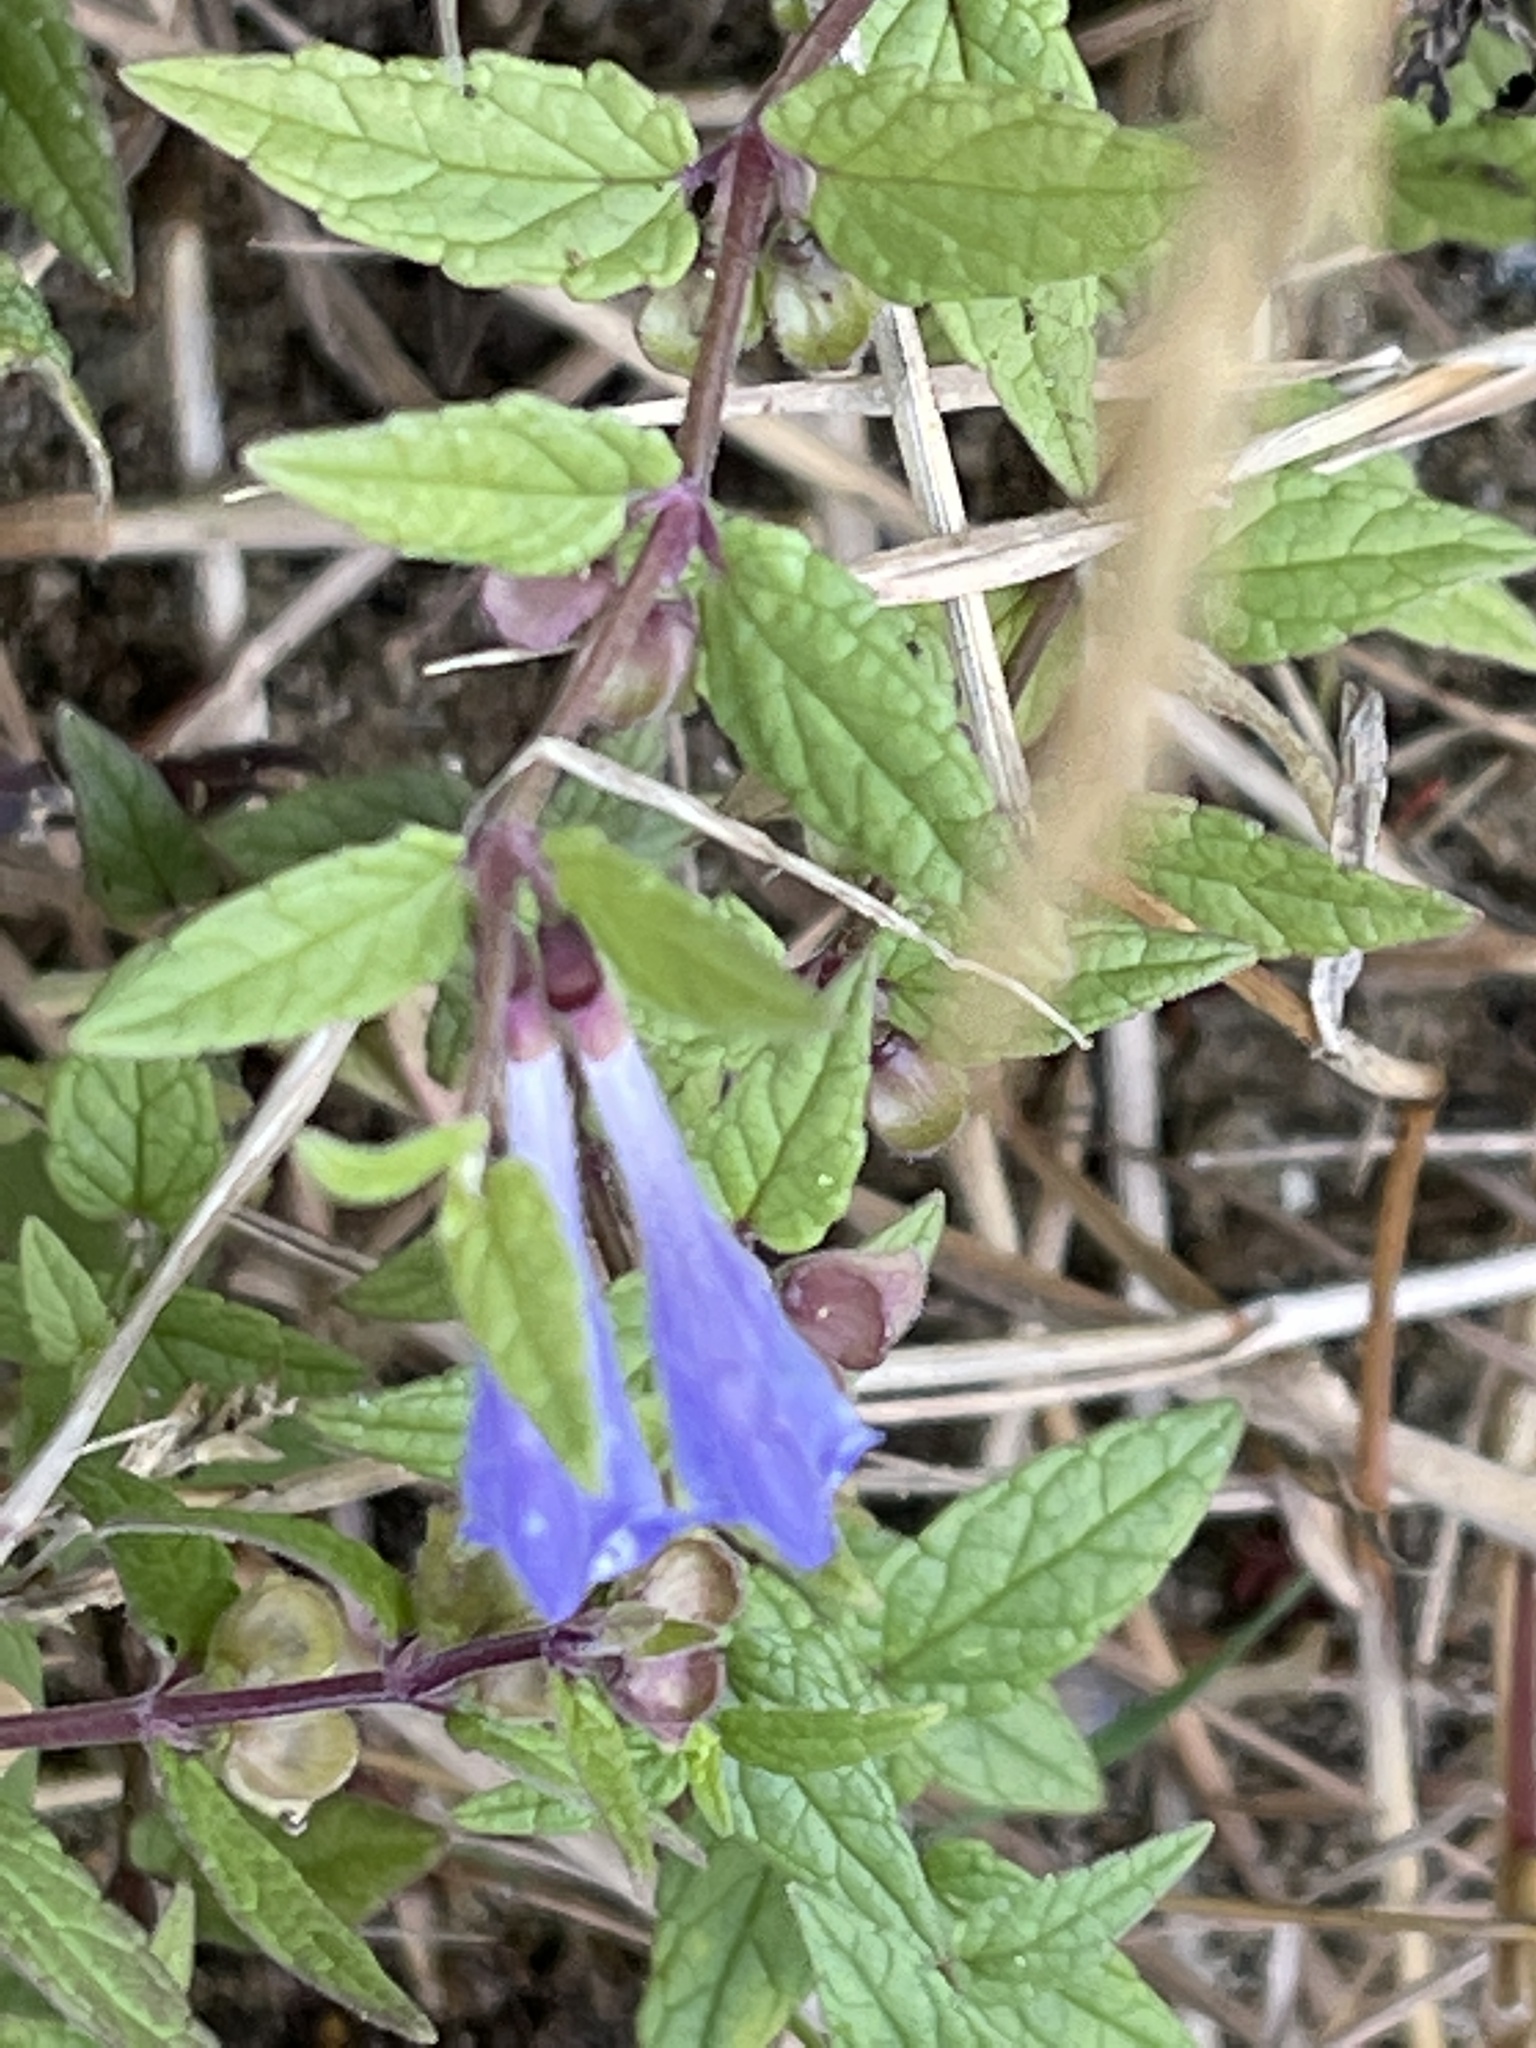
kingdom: Plantae
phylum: Tracheophyta
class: Magnoliopsida
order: Lamiales
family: Lamiaceae
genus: Scutellaria
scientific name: Scutellaria galericulata
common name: Skullcap
